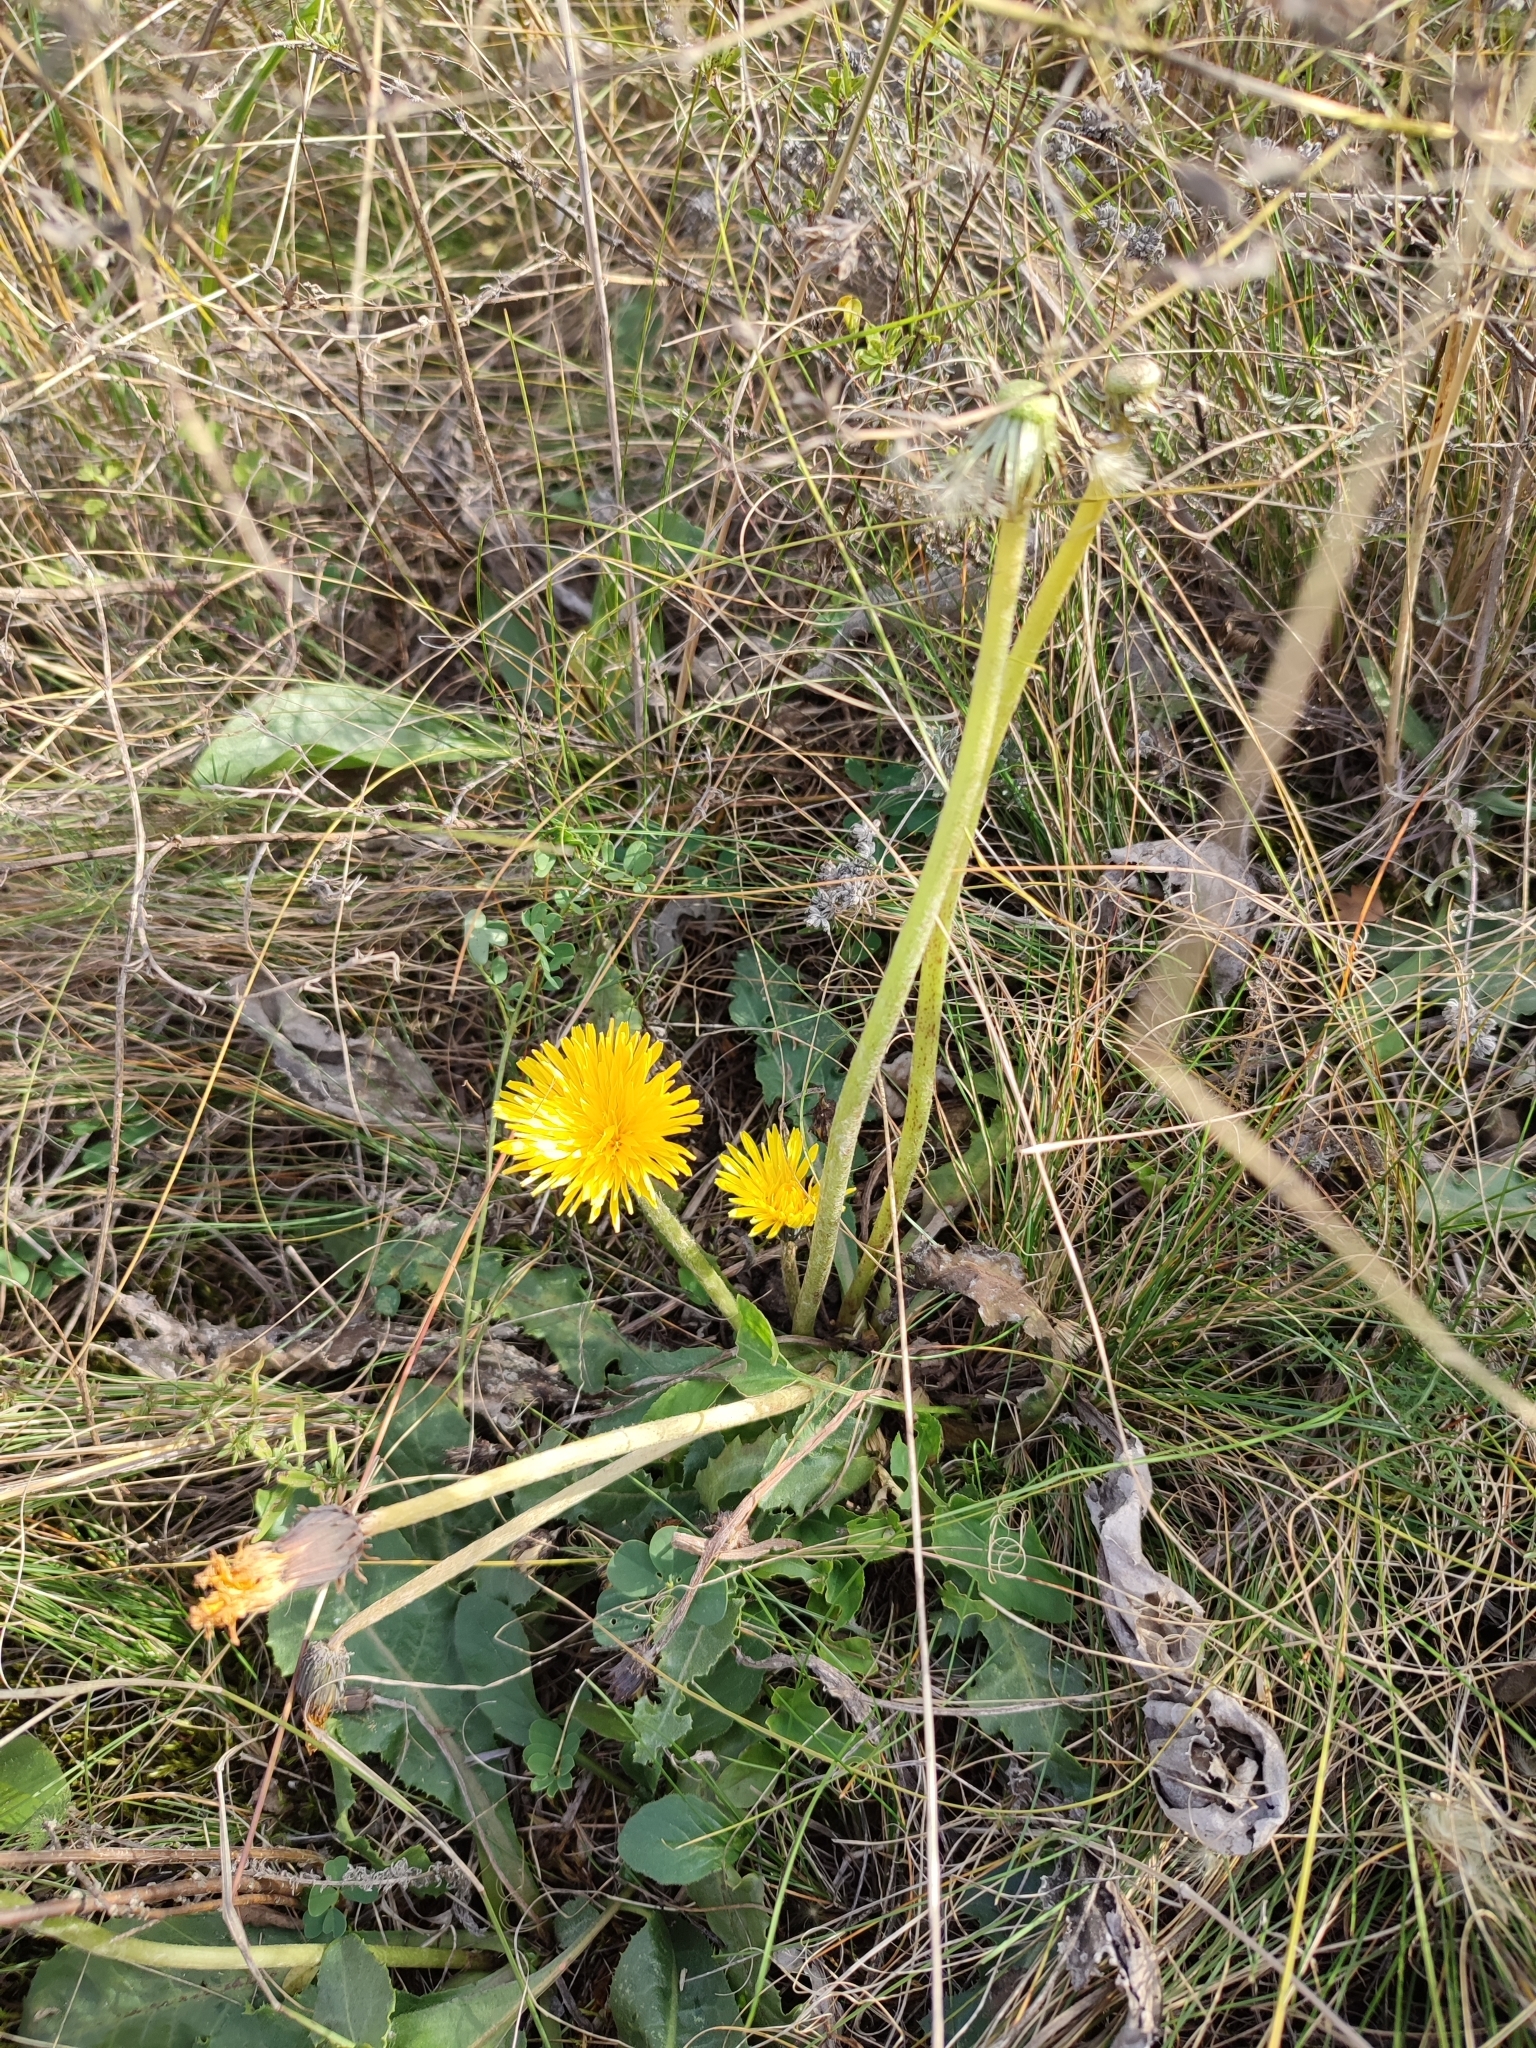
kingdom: Plantae
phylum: Tracheophyta
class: Magnoliopsida
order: Asterales
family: Asteraceae
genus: Taraxacum
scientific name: Taraxacum serotinum
